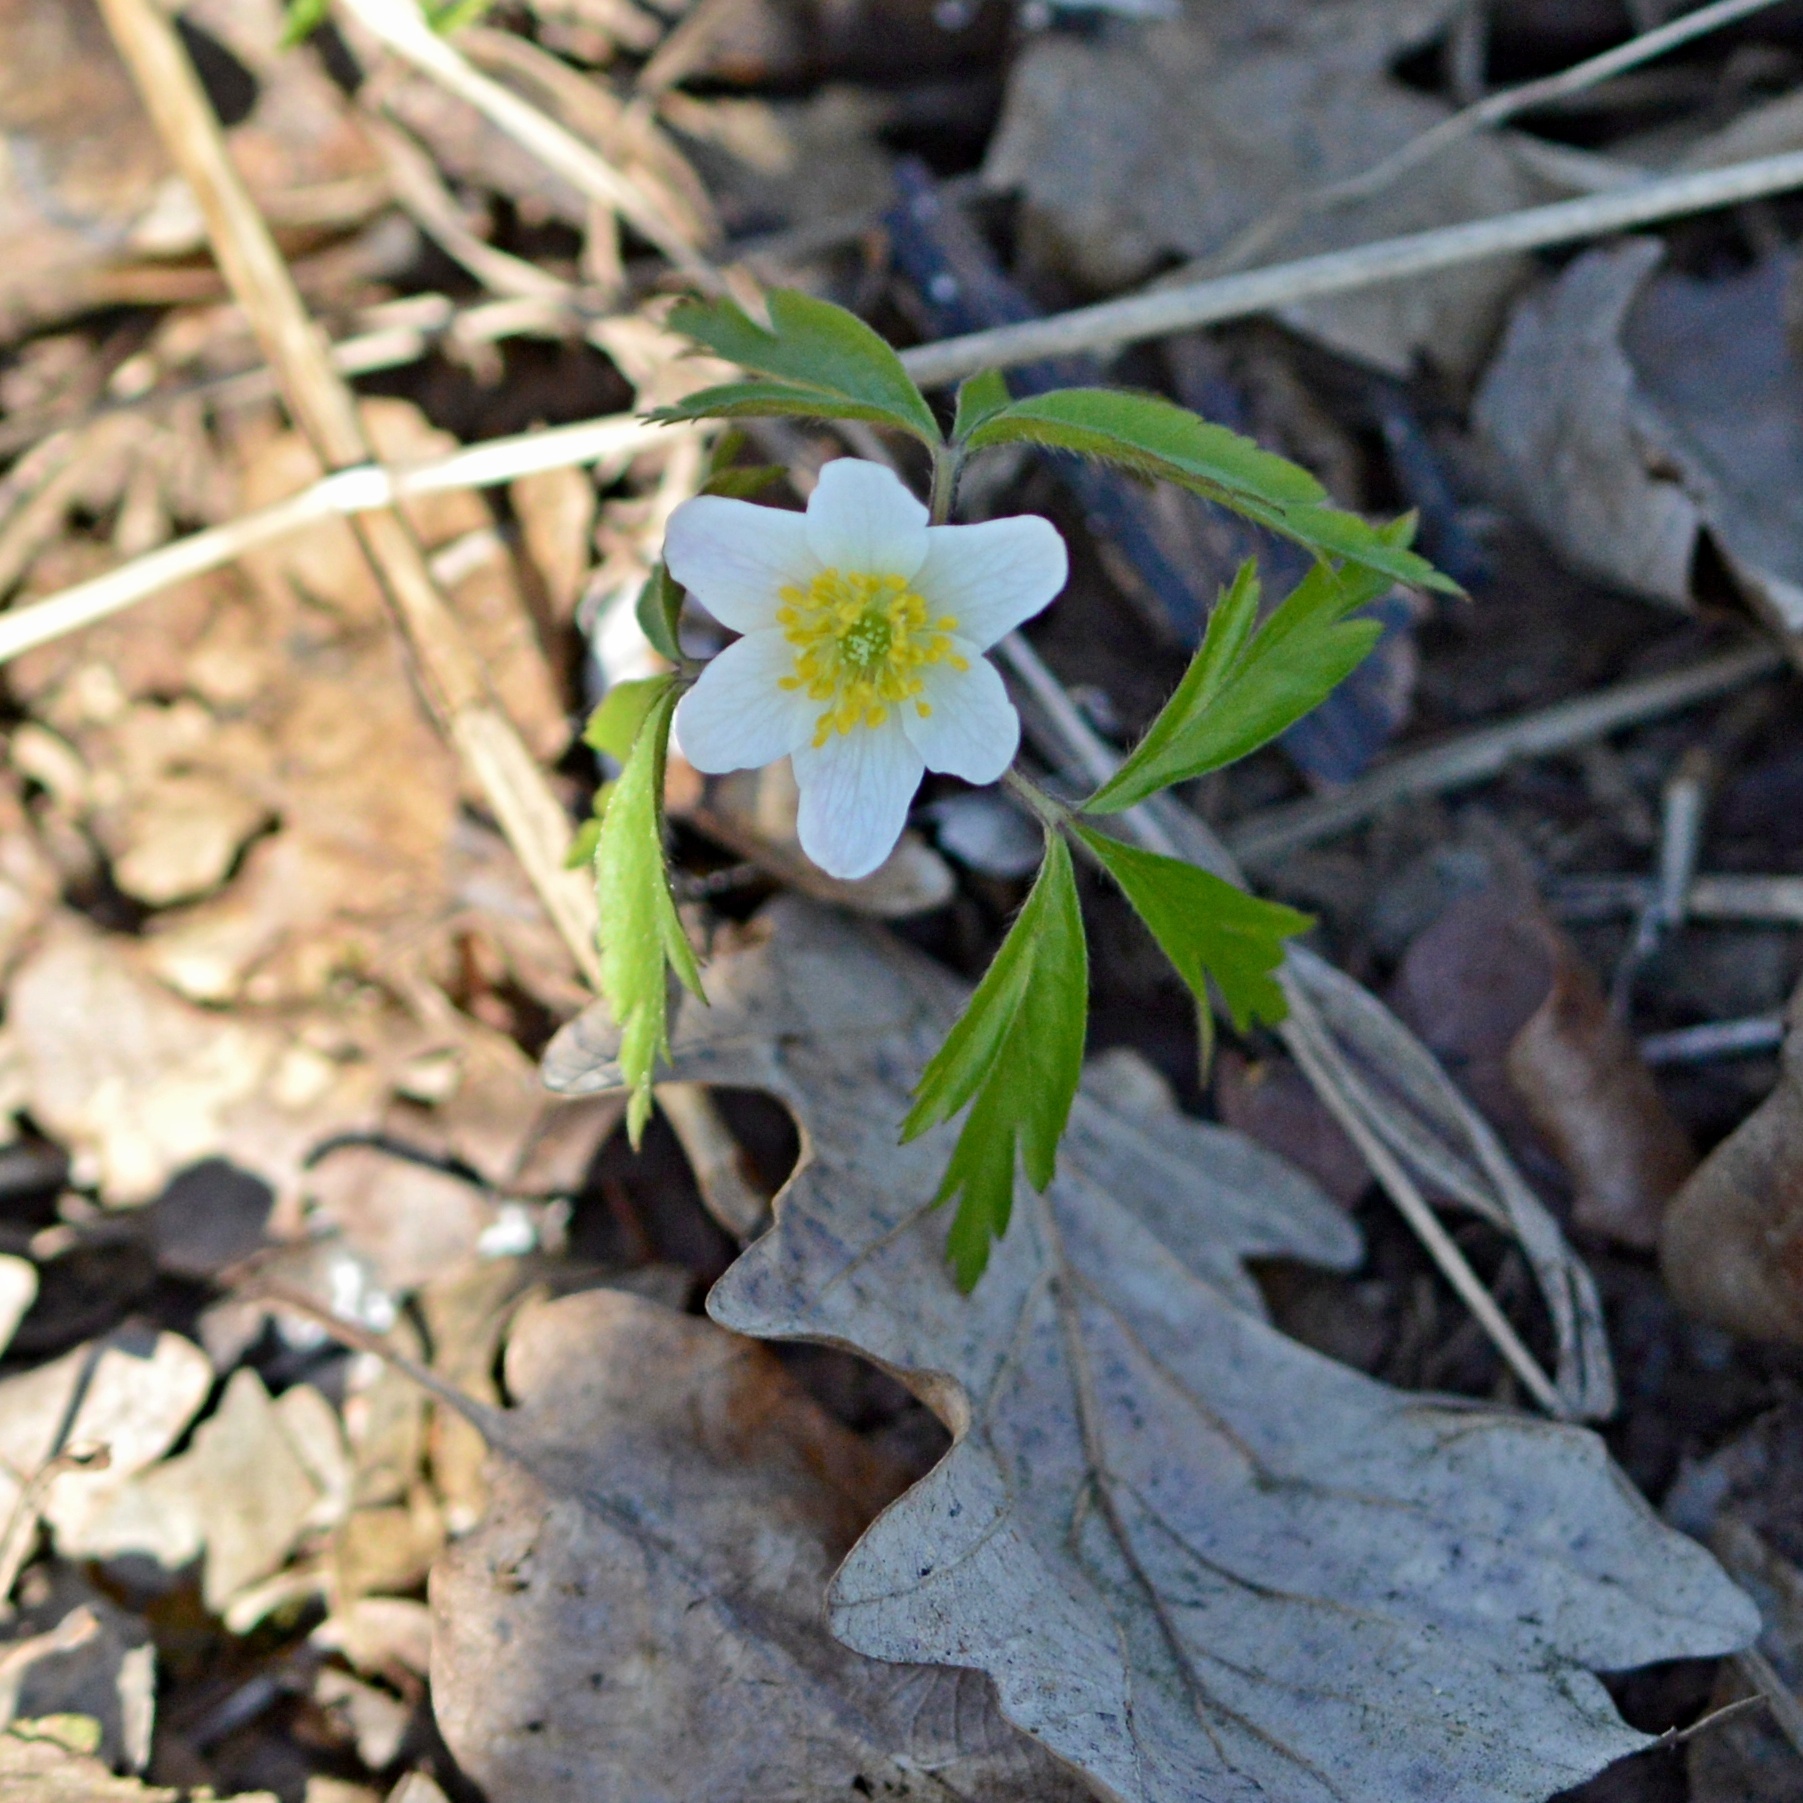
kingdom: Plantae
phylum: Tracheophyta
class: Magnoliopsida
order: Ranunculales
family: Ranunculaceae
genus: Anemone
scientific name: Anemone nemorosa
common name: Wood anemone
